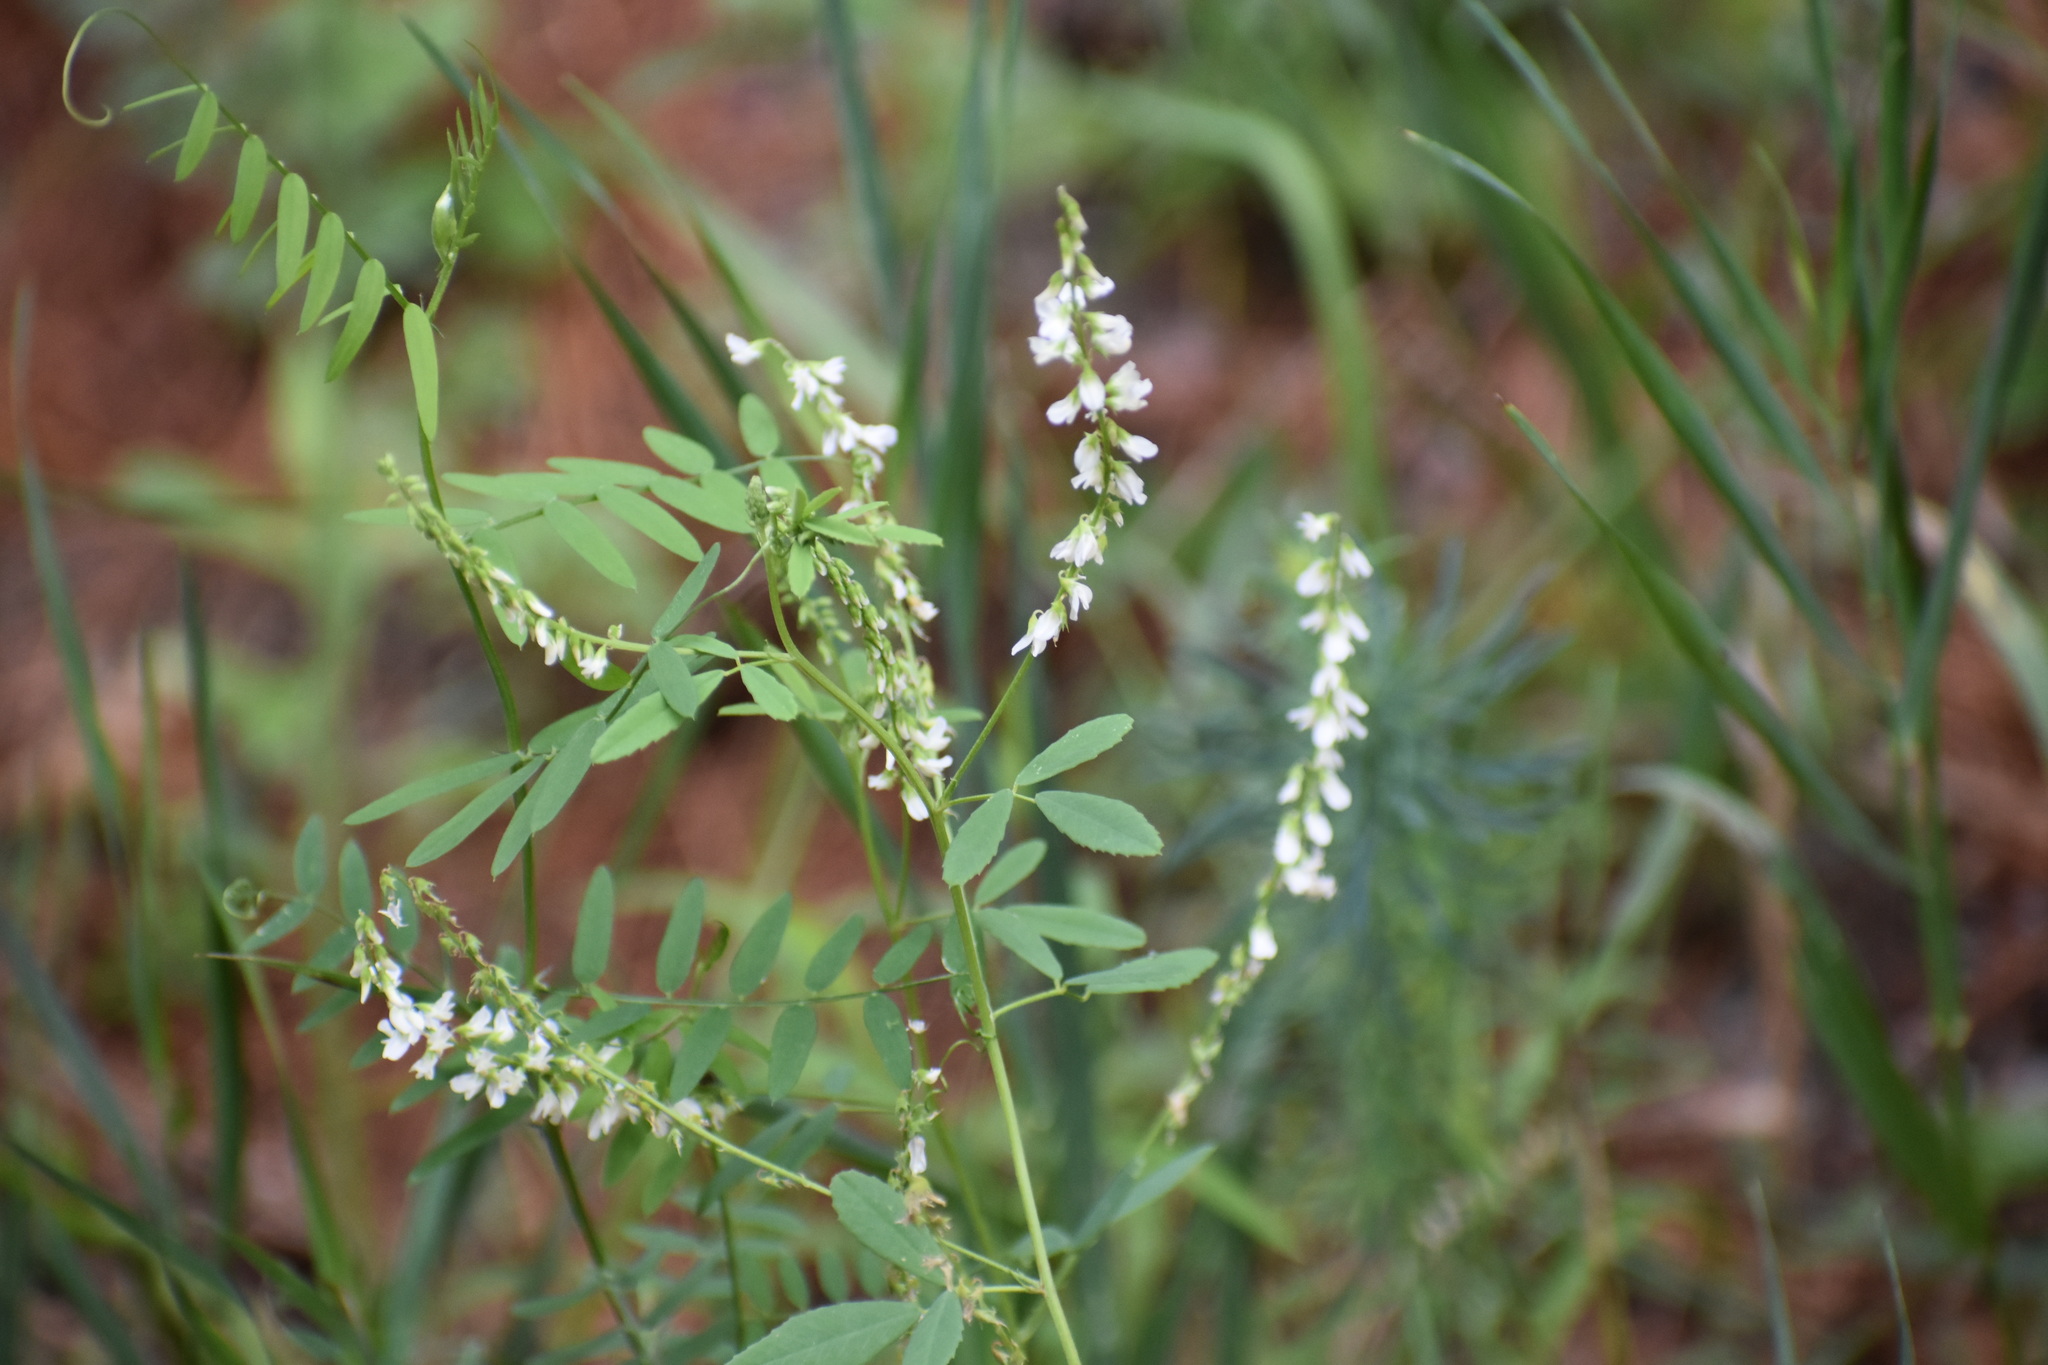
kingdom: Plantae
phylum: Tracheophyta
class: Magnoliopsida
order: Fabales
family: Fabaceae
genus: Melilotus
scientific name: Melilotus albus
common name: White melilot
